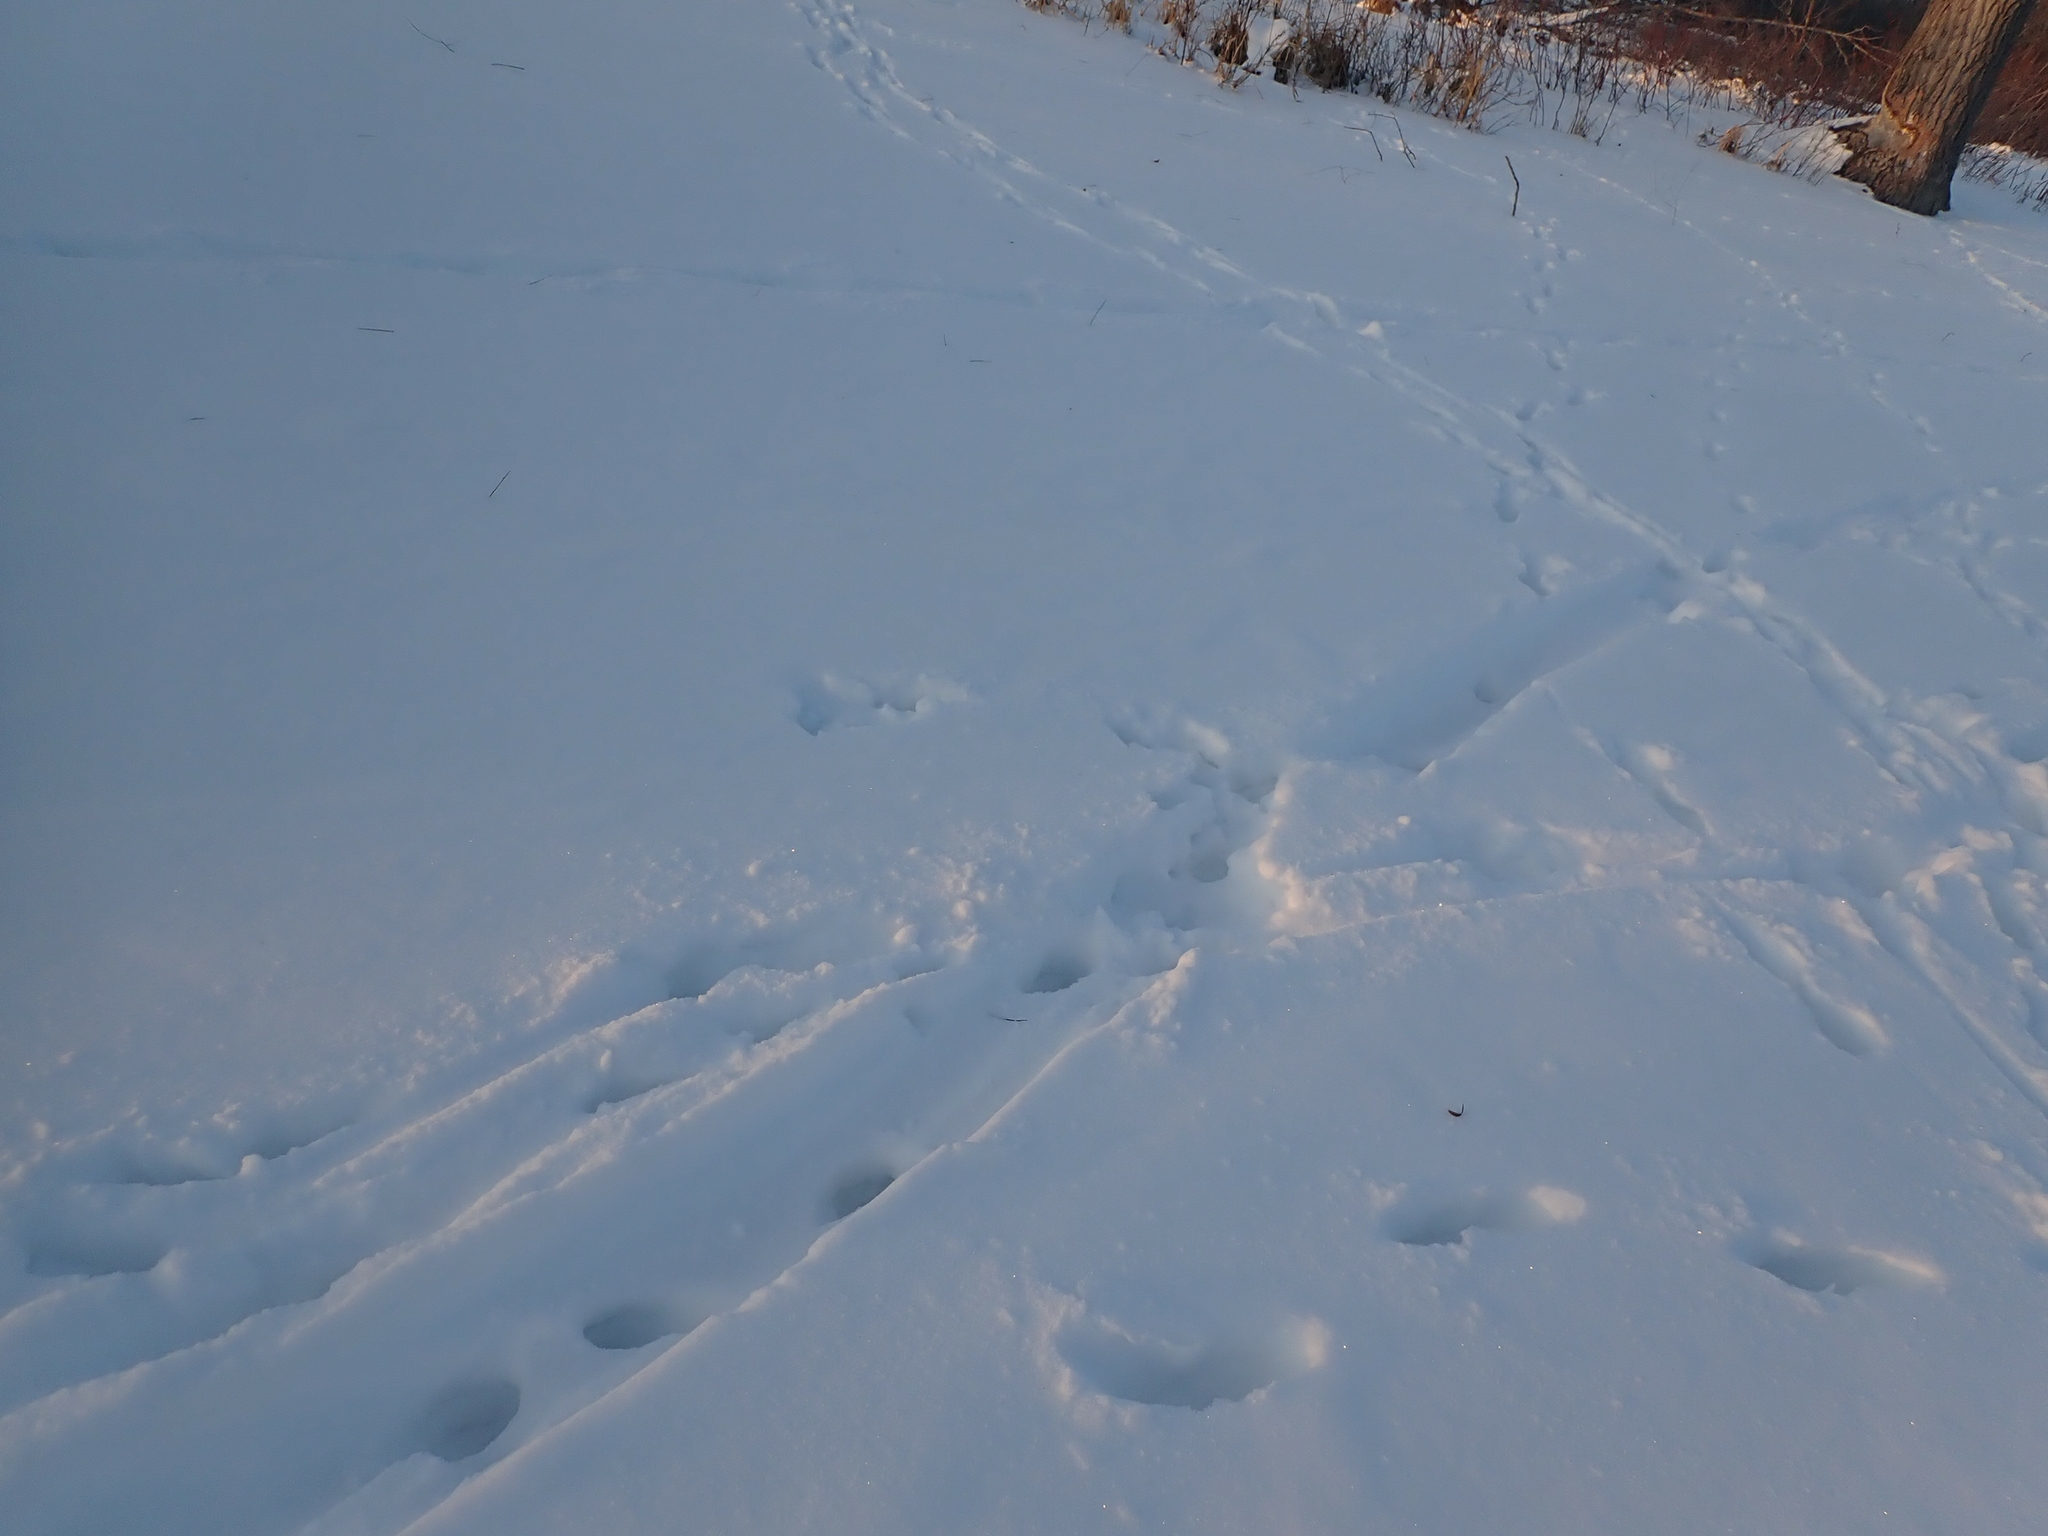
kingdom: Animalia
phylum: Chordata
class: Mammalia
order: Carnivora
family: Mustelidae
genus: Lontra
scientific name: Lontra canadensis
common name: North american river otter
